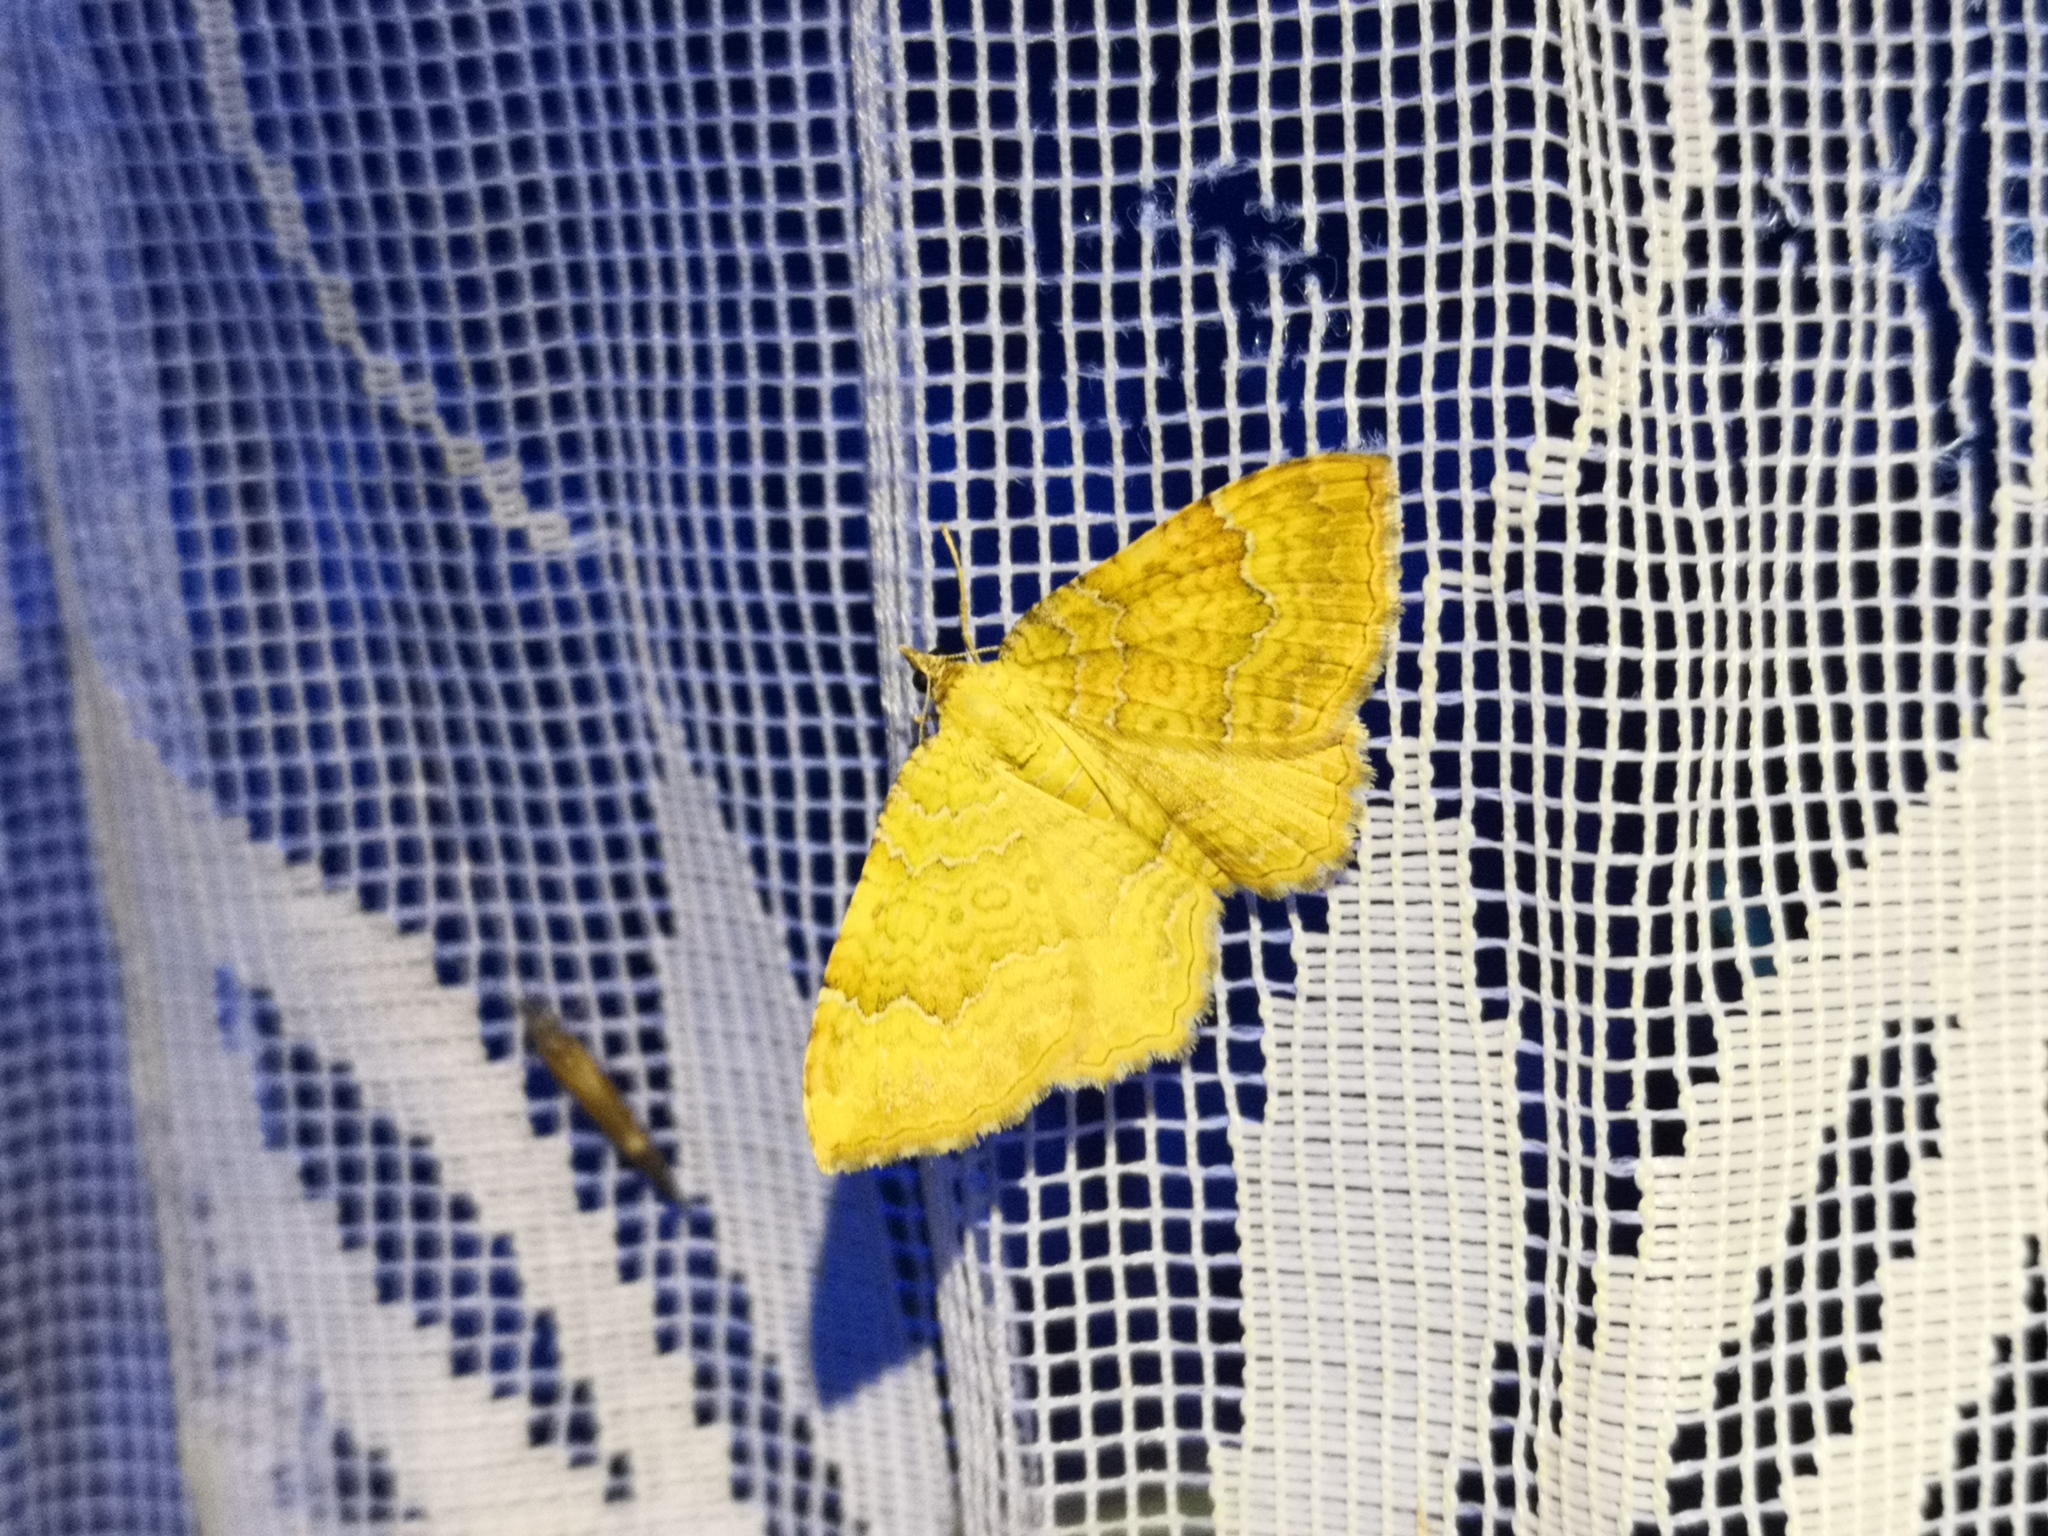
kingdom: Animalia
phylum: Arthropoda
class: Insecta
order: Lepidoptera
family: Geometridae
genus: Camptogramma
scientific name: Camptogramma bilineata
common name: Yellow shell
